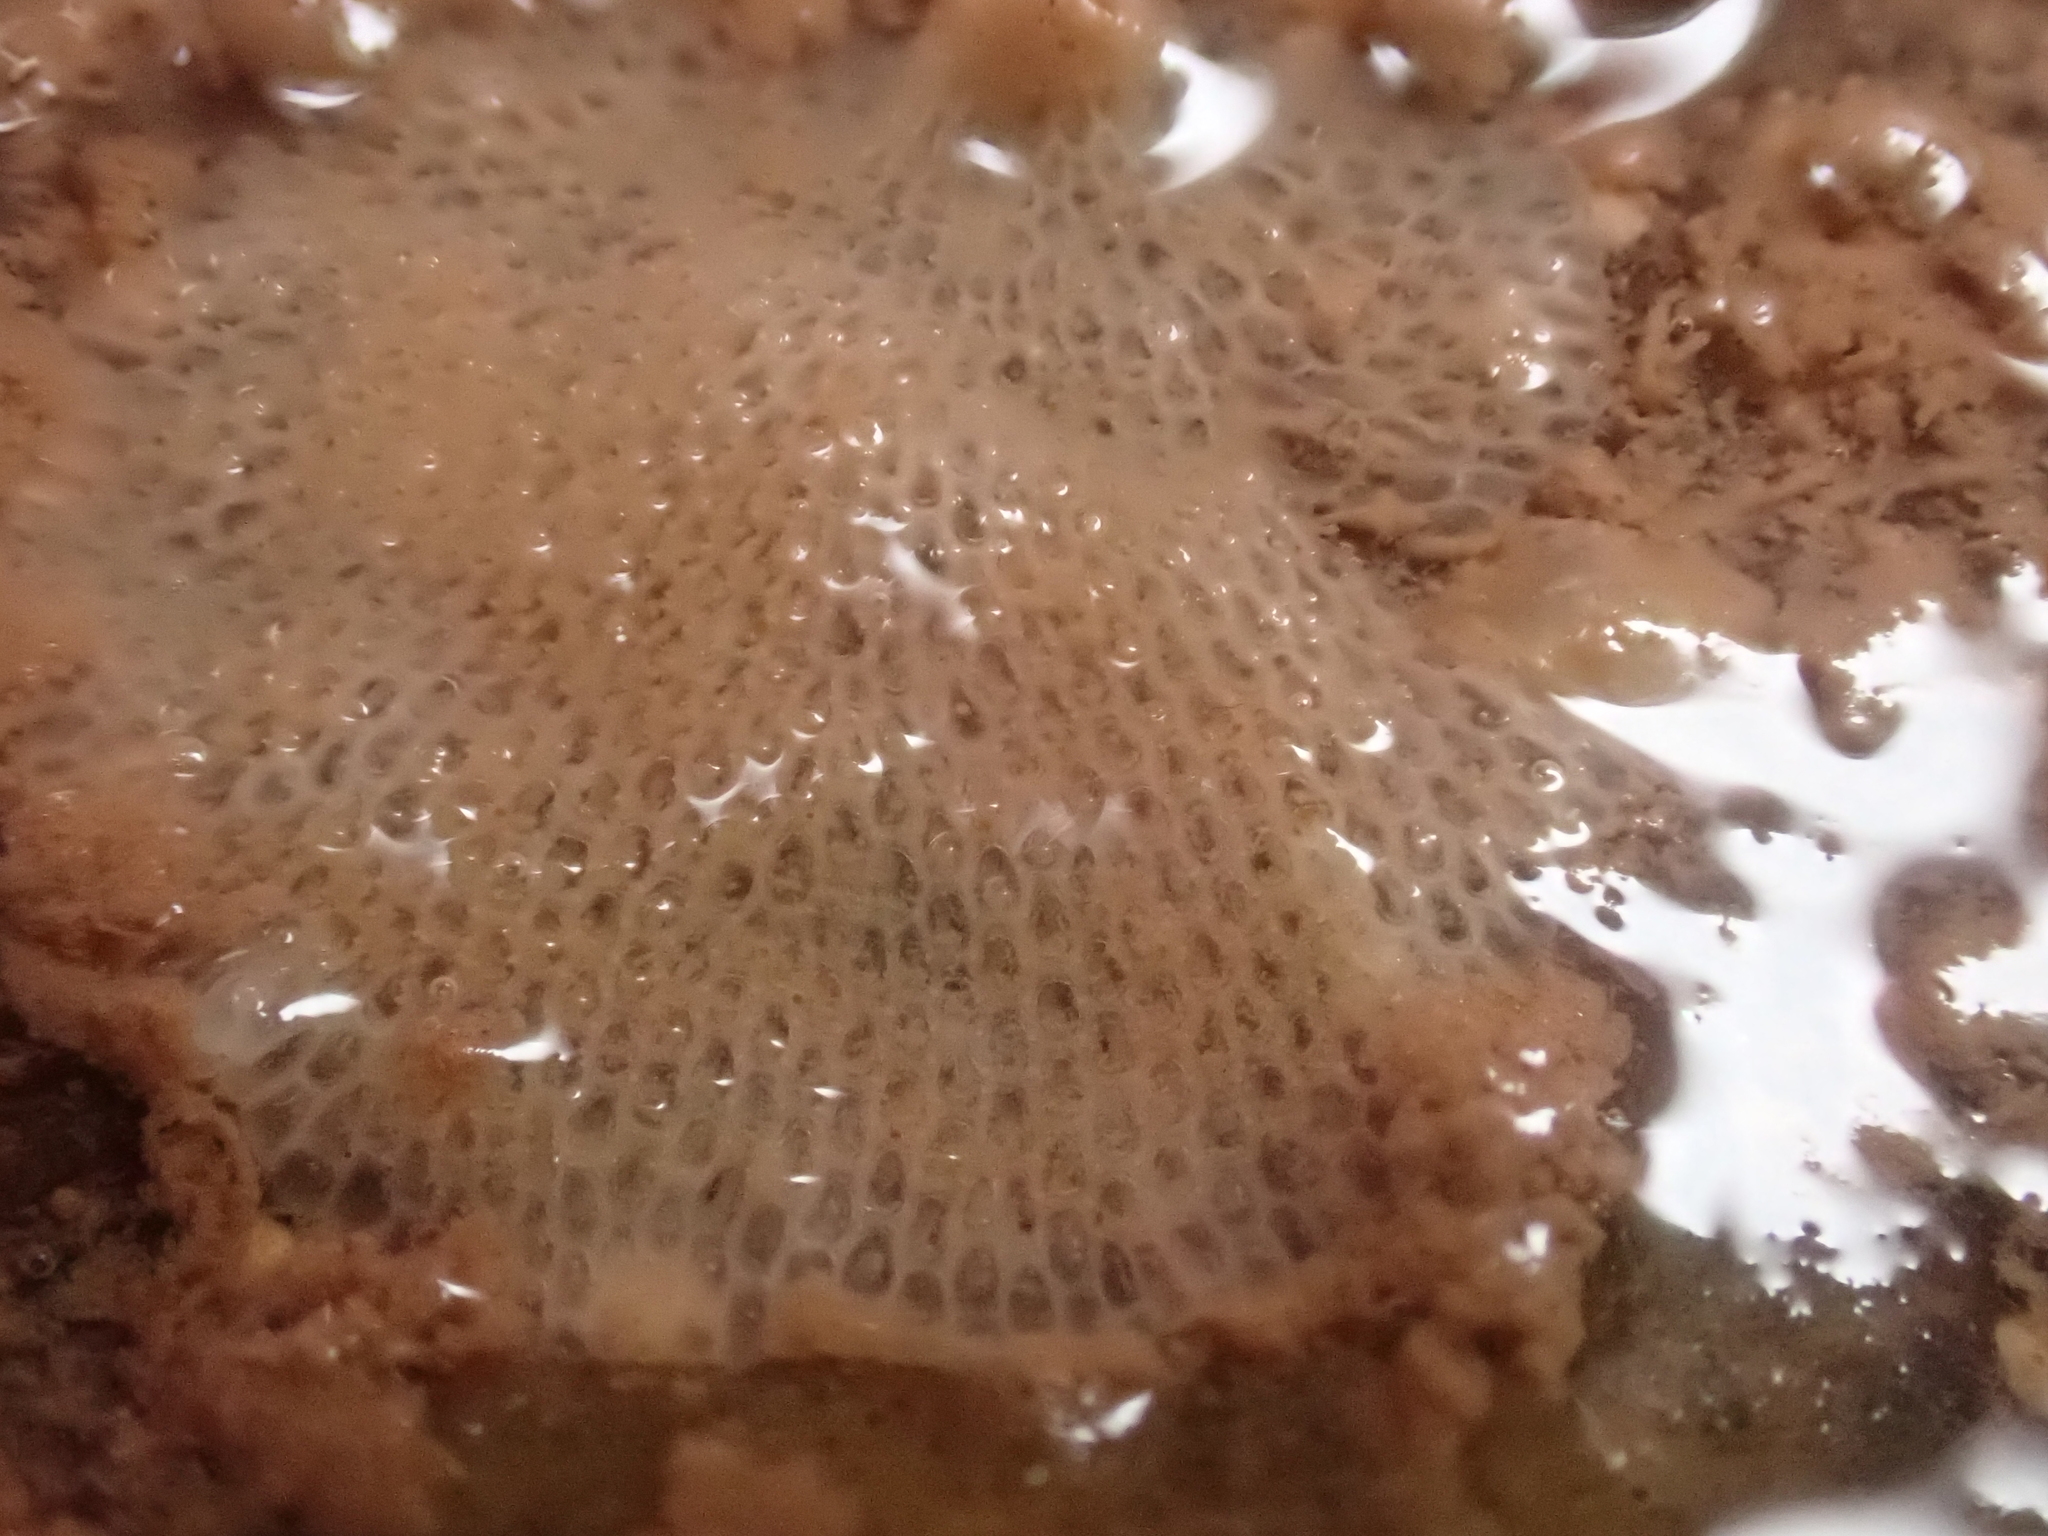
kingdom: Animalia
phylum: Bryozoa
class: Gymnolaemata
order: Cheilostomatida
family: Flustridae
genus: Flustra
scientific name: Flustra foliacea
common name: Hornwrack
